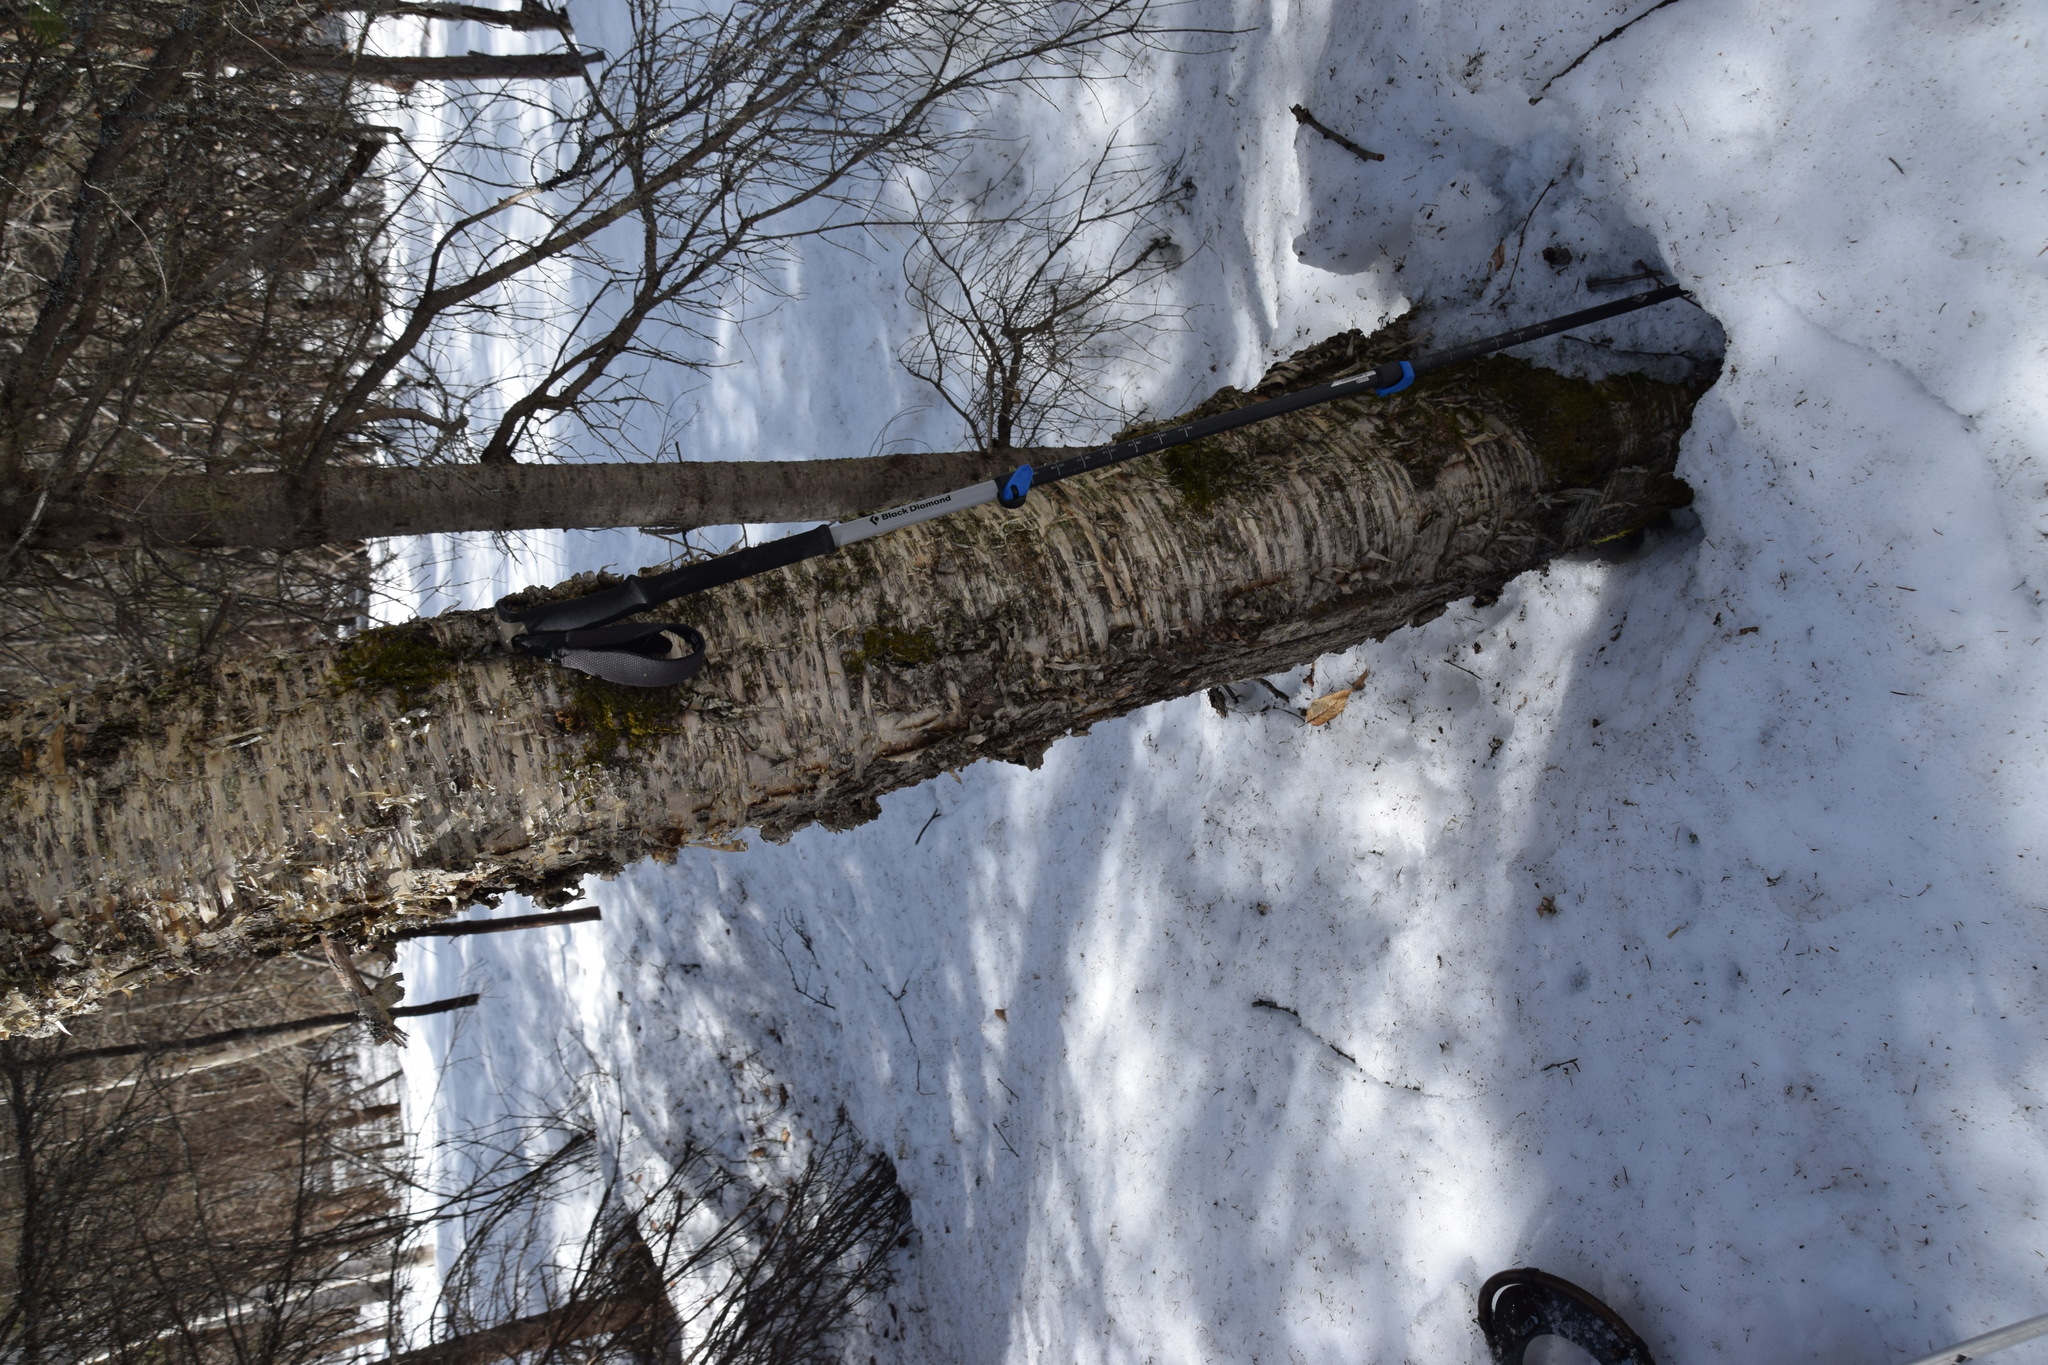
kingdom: Plantae
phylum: Tracheophyta
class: Magnoliopsida
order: Fagales
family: Betulaceae
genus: Betula
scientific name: Betula alleghaniensis
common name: Yellow birch
